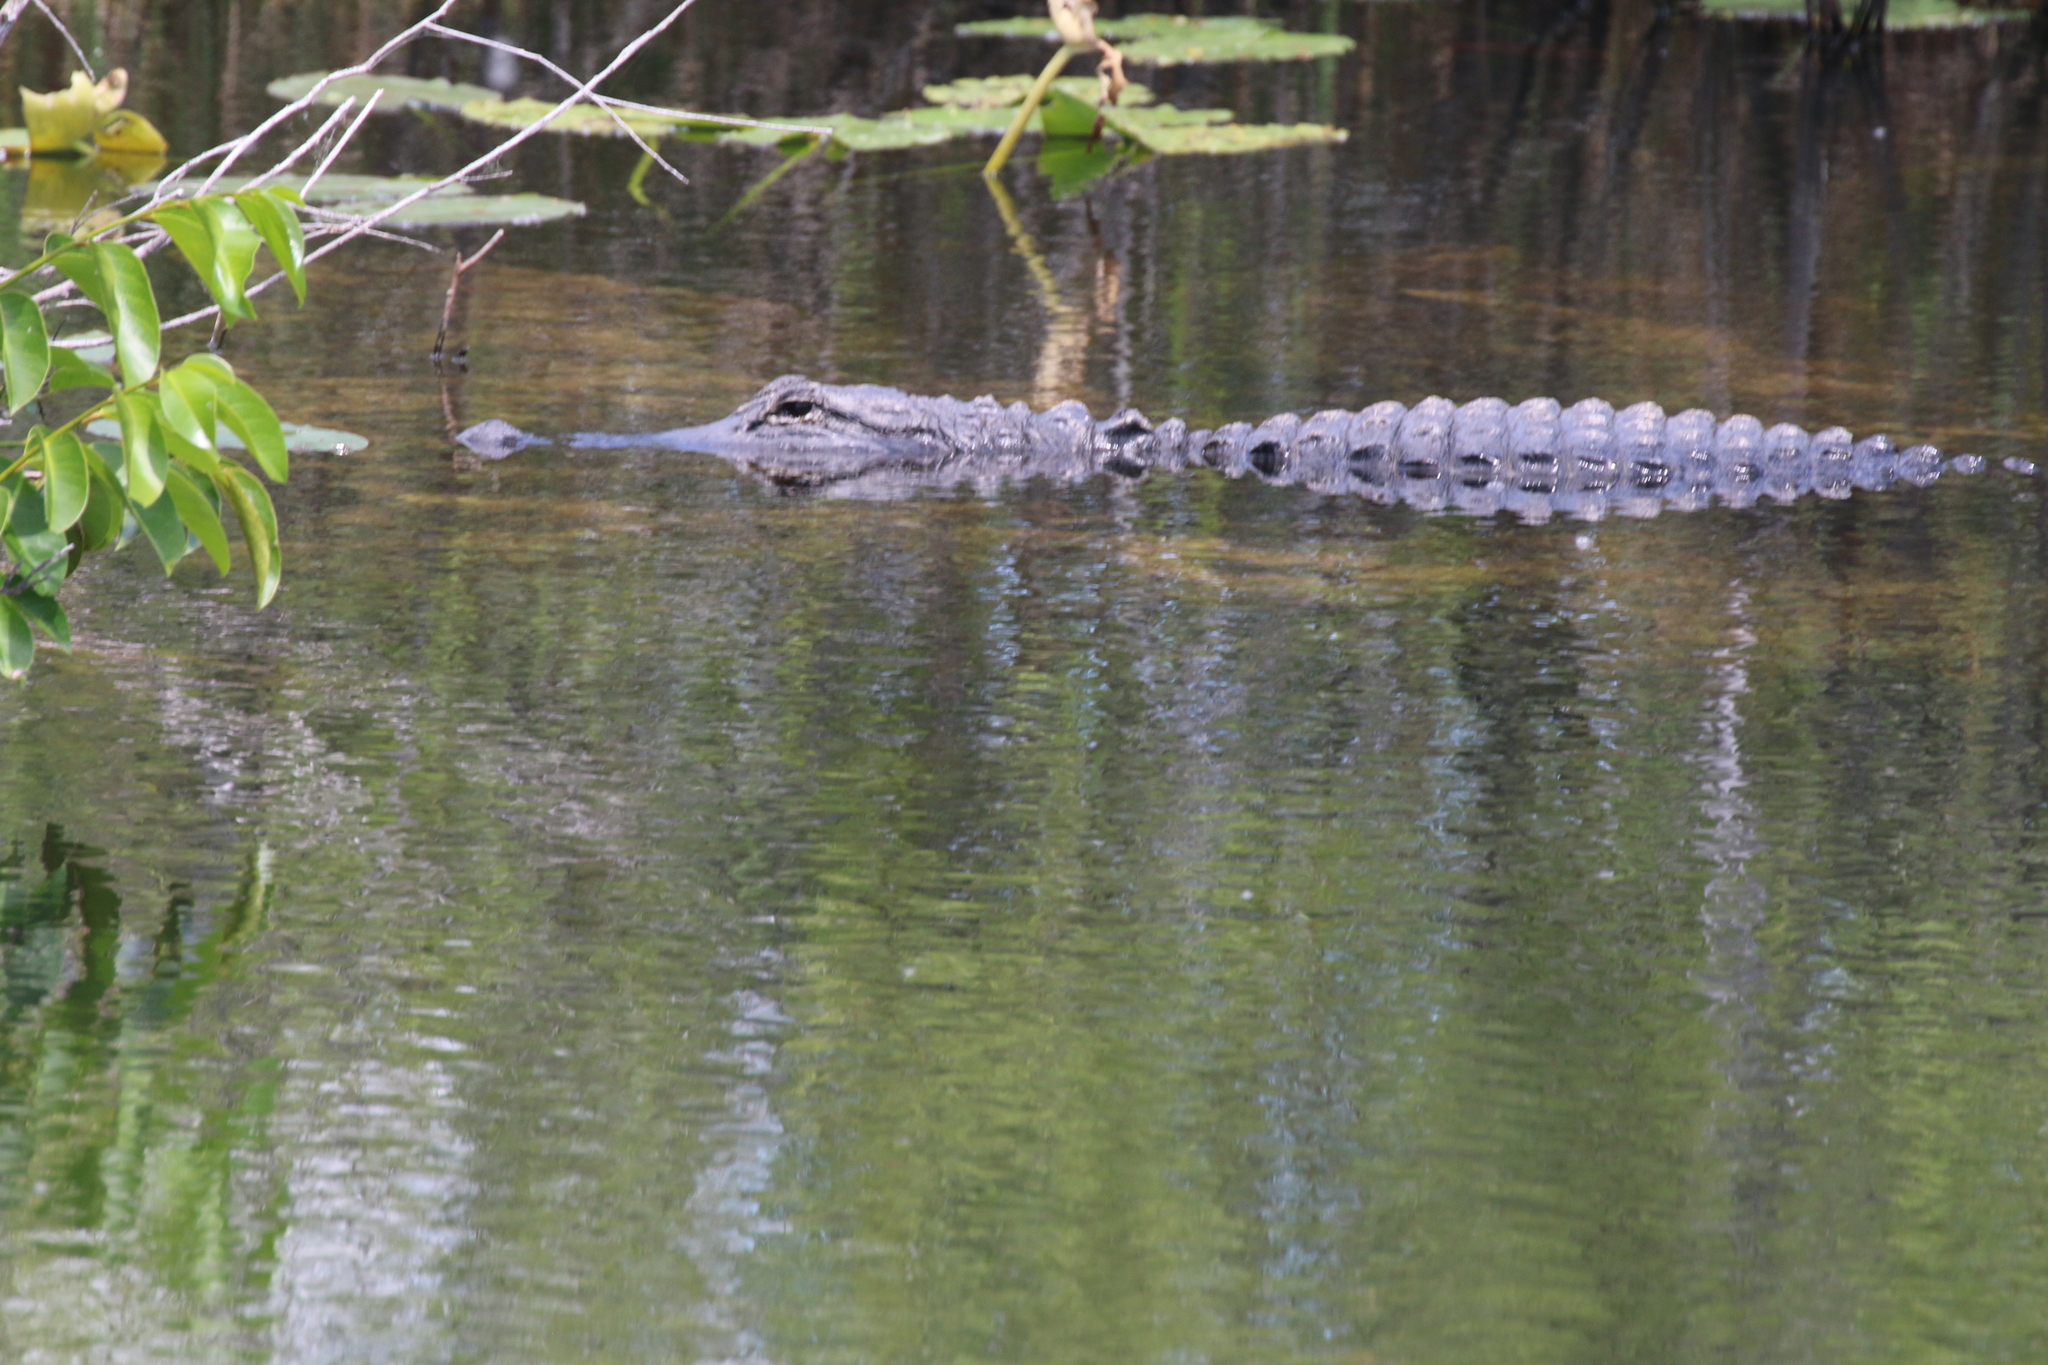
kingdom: Animalia
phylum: Chordata
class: Crocodylia
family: Alligatoridae
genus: Alligator
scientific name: Alligator mississippiensis
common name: American alligator
